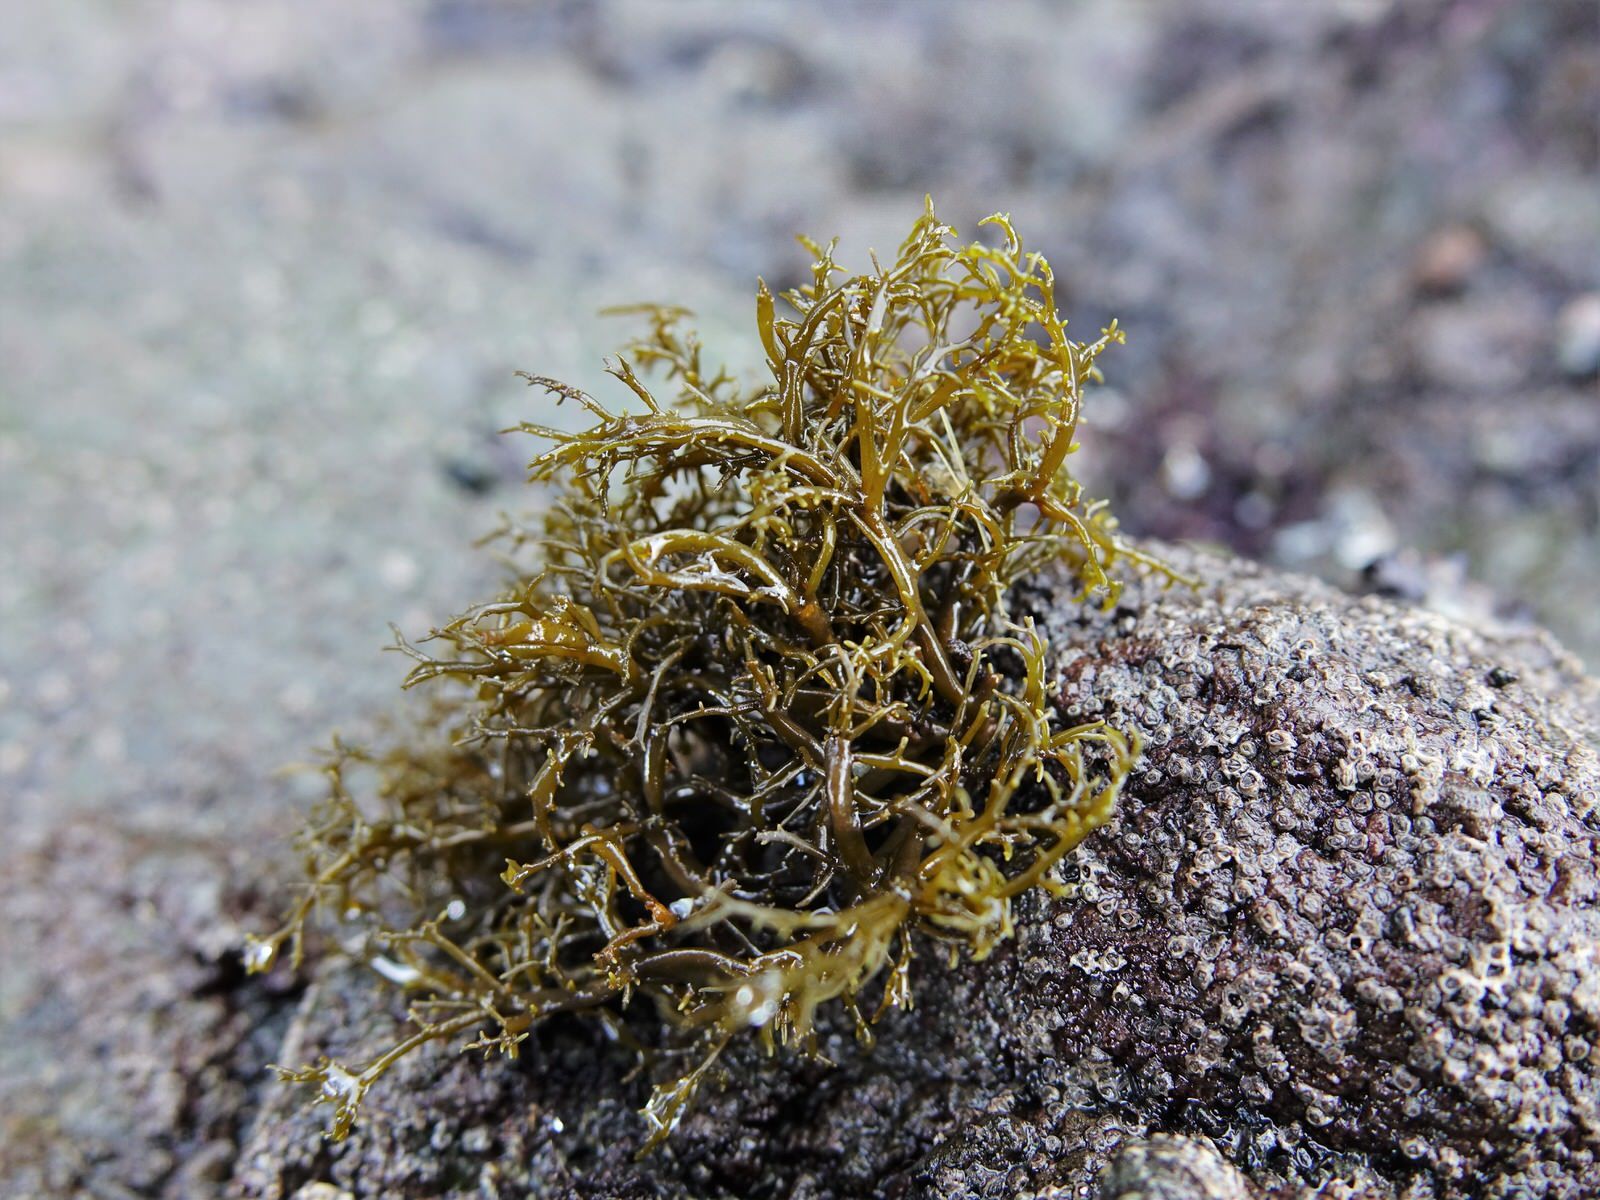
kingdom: Chromista
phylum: Ochrophyta
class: Phaeophyceae
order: Scytothamnales
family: Scytothamnaceae
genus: Scytothamnus
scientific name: Scytothamnus australis
